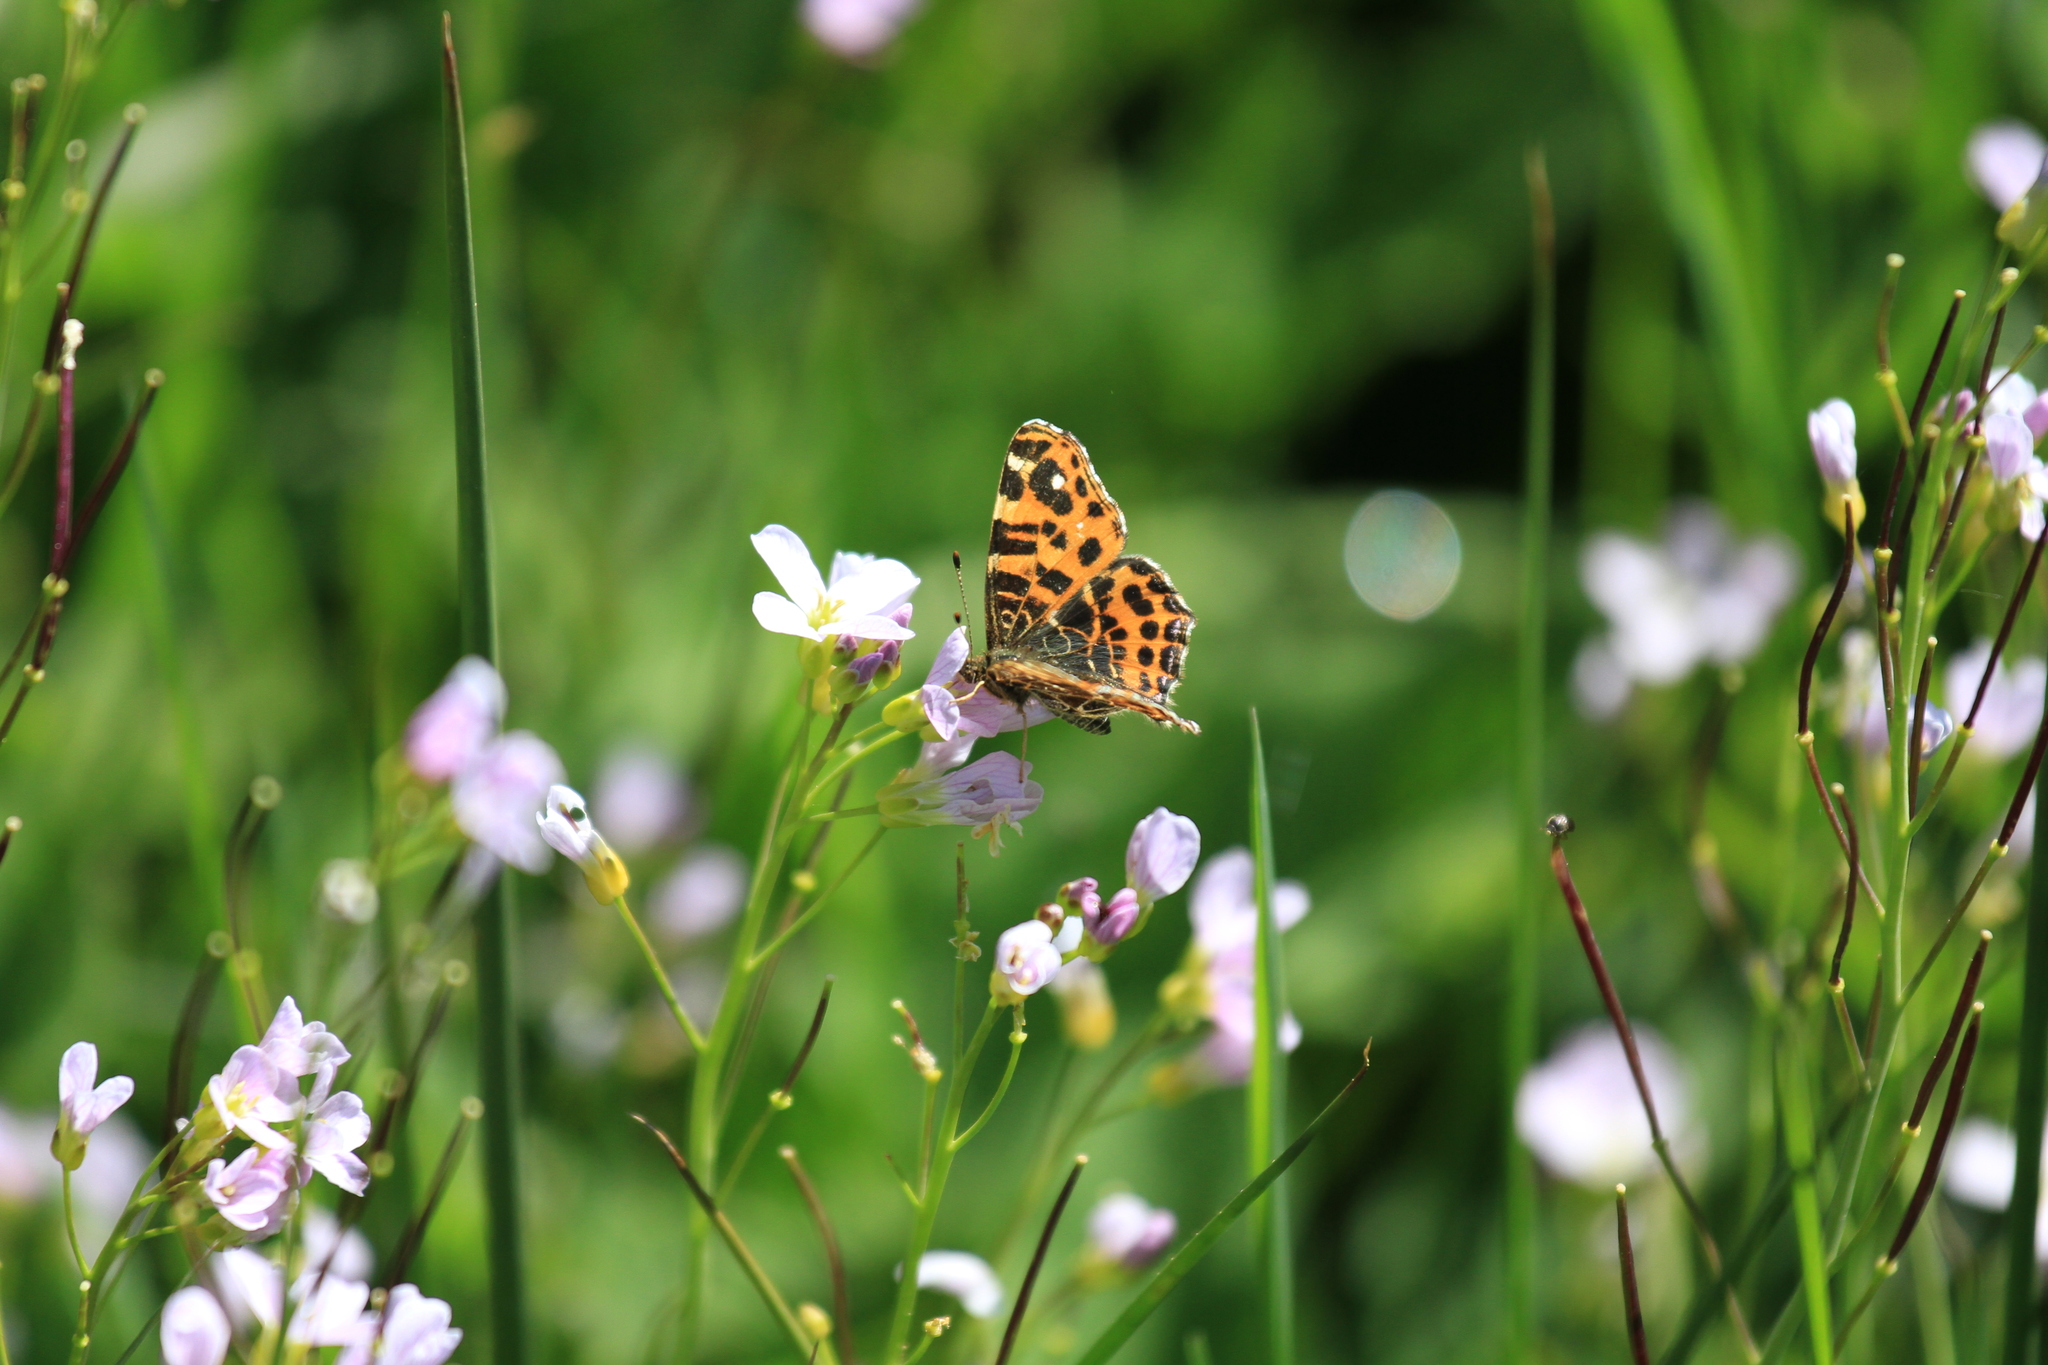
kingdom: Animalia
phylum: Arthropoda
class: Insecta
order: Lepidoptera
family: Nymphalidae
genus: Araschnia
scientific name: Araschnia levana
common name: Map butterfly
